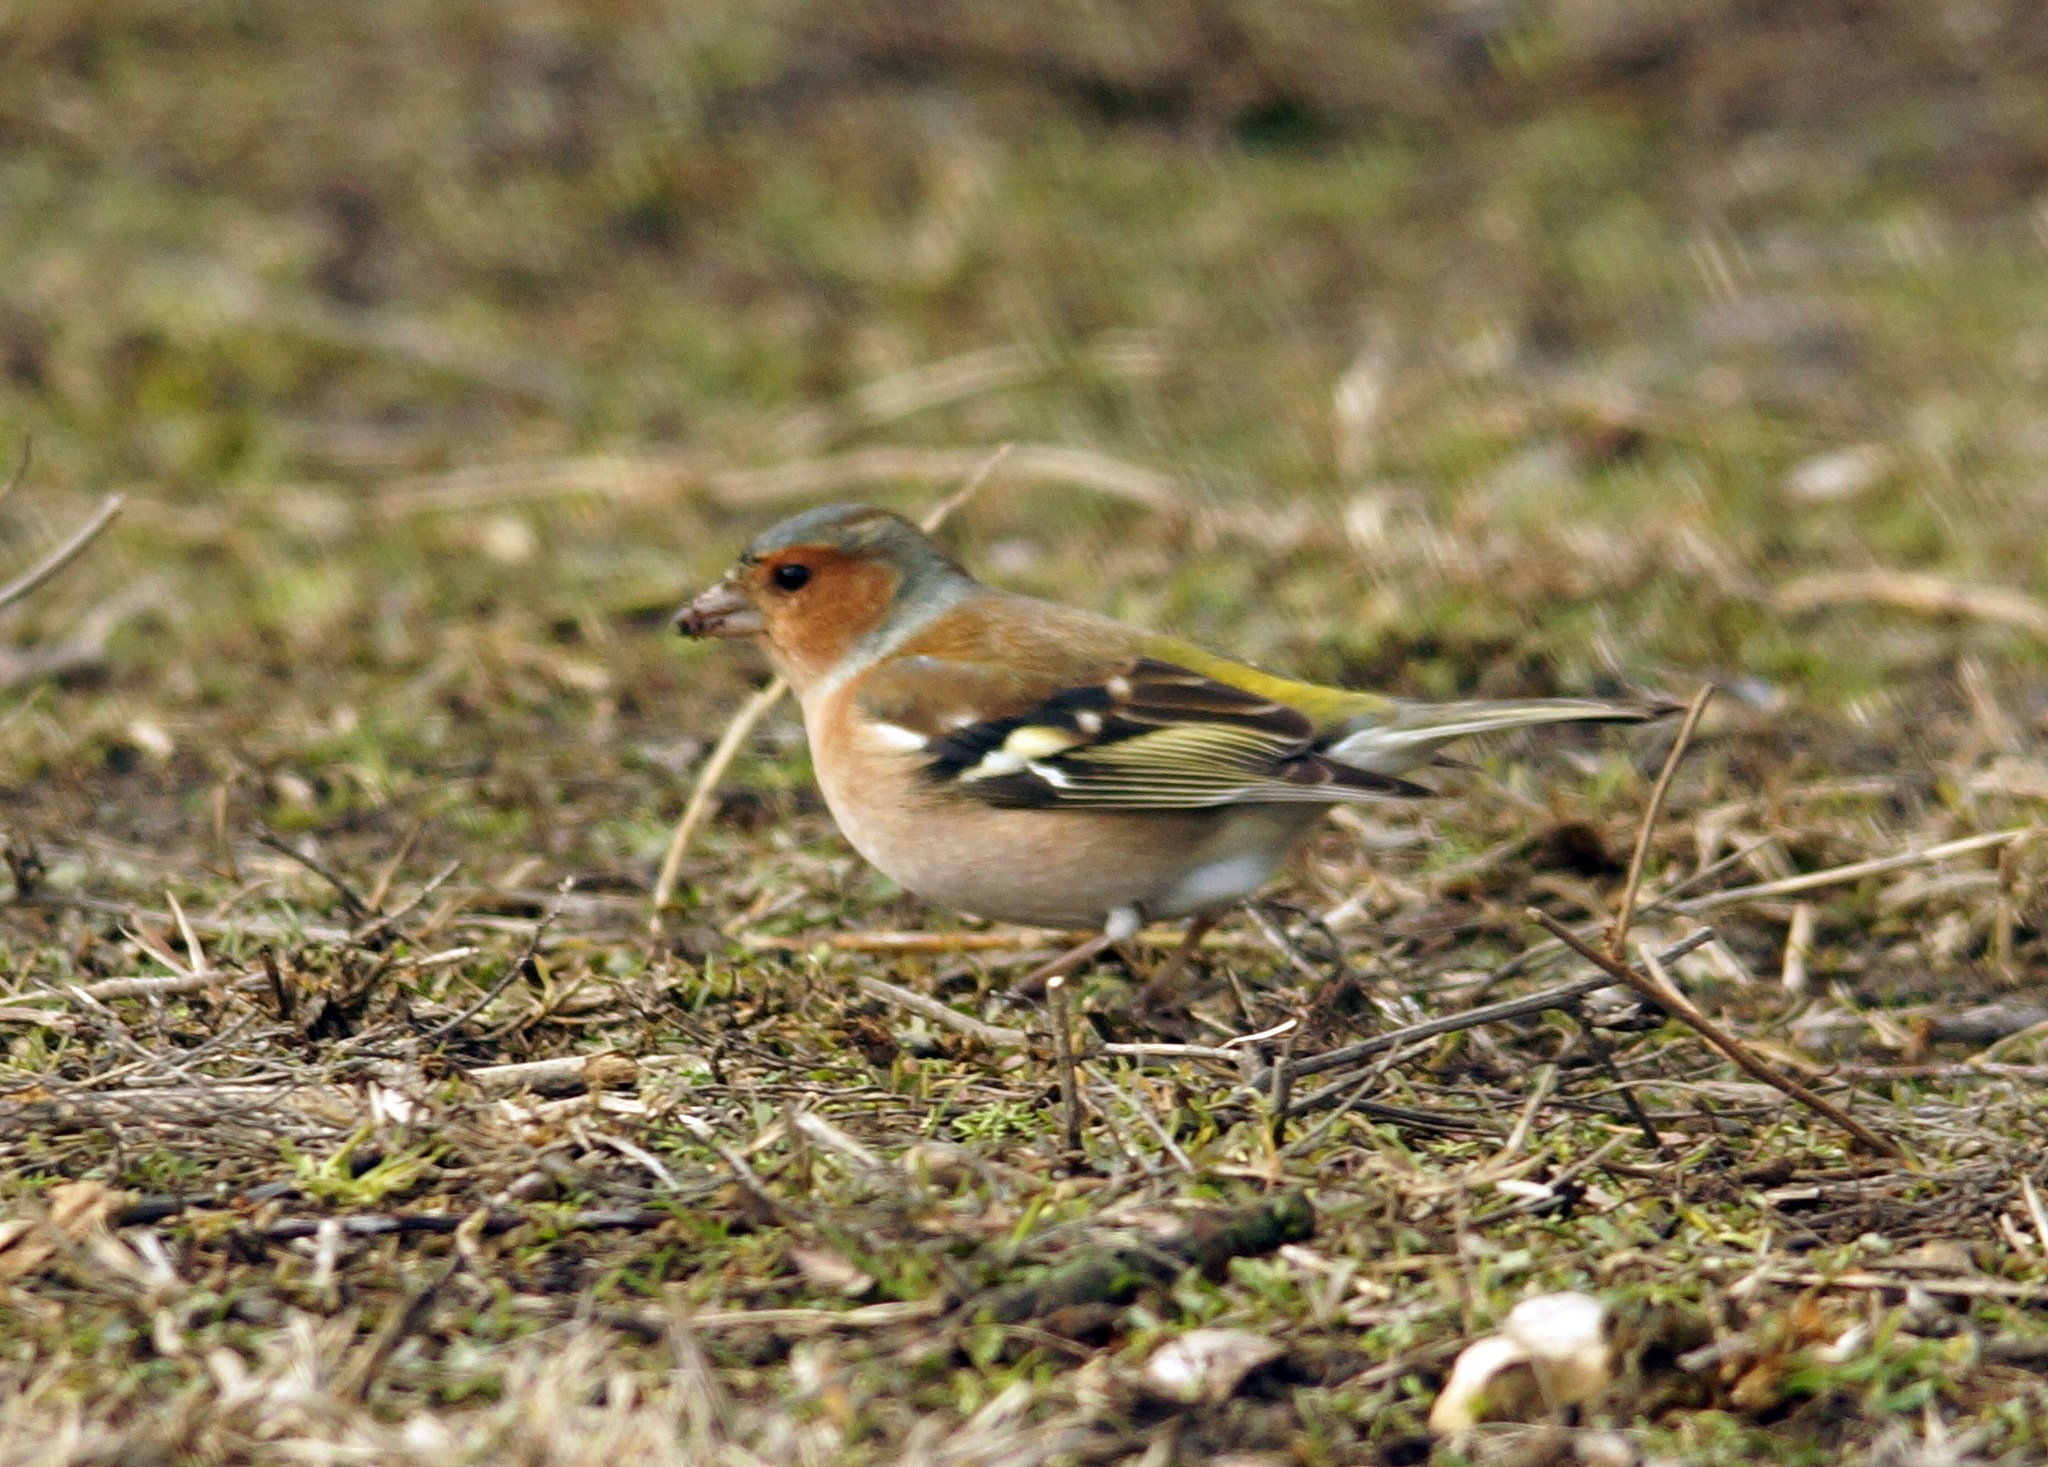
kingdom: Animalia
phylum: Chordata
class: Aves
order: Passeriformes
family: Fringillidae
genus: Fringilla
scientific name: Fringilla coelebs
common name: Common chaffinch
